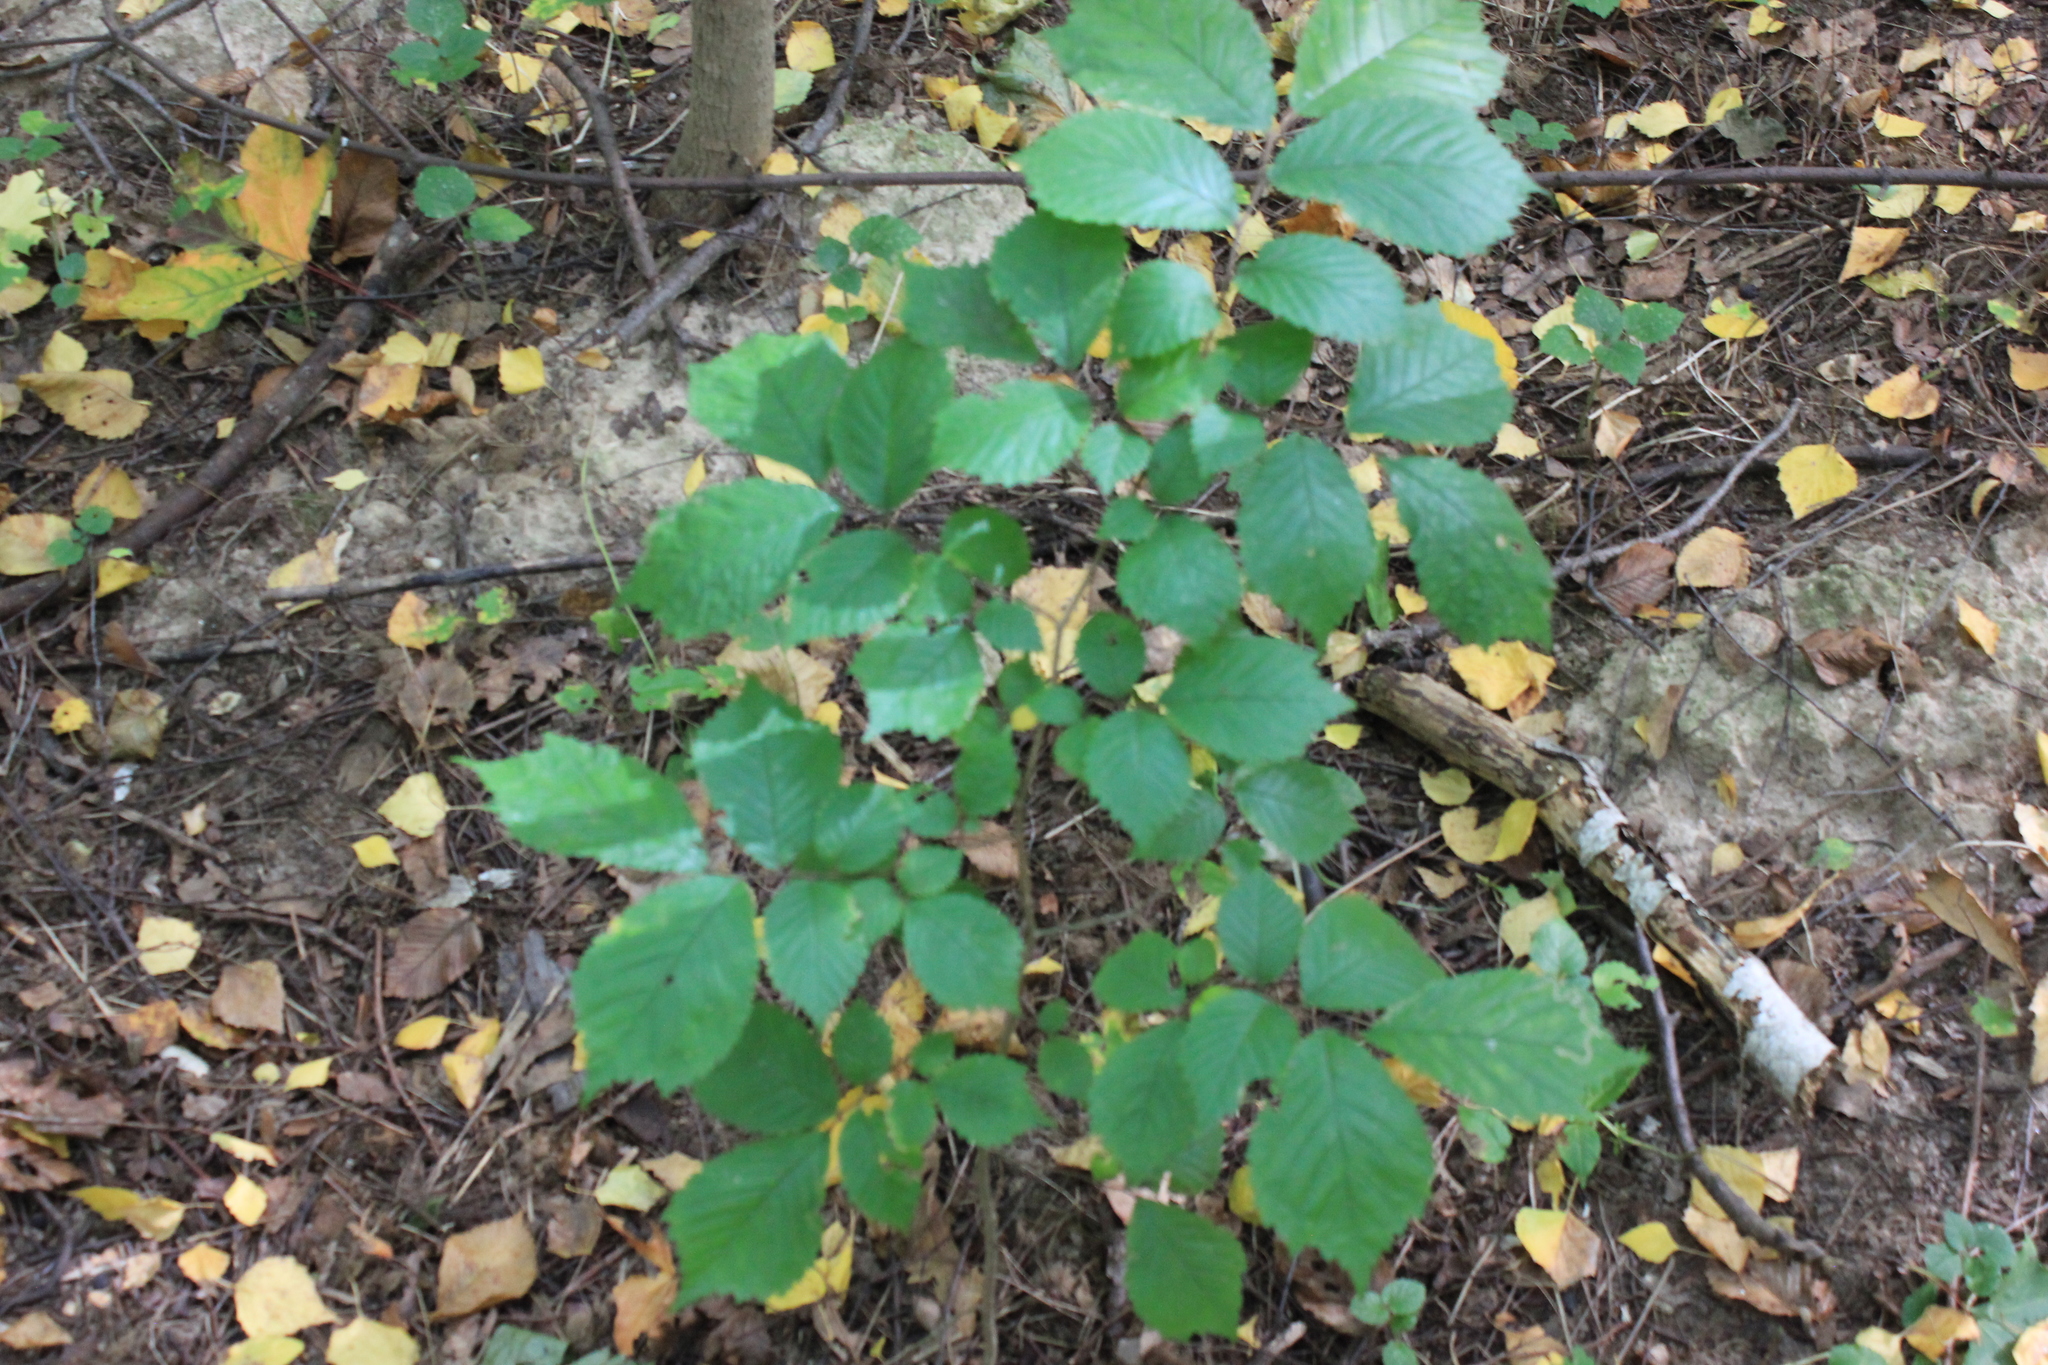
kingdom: Plantae
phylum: Tracheophyta
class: Magnoliopsida
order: Rosales
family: Ulmaceae
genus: Ulmus
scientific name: Ulmus glabra
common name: Wych elm
